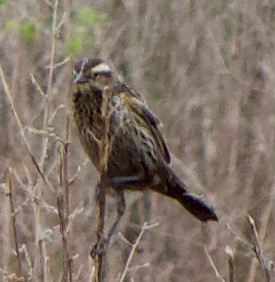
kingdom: Animalia
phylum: Chordata
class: Aves
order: Passeriformes
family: Icteridae
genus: Agelasticus
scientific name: Agelasticus thilius
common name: Yellow-winged blackbird
